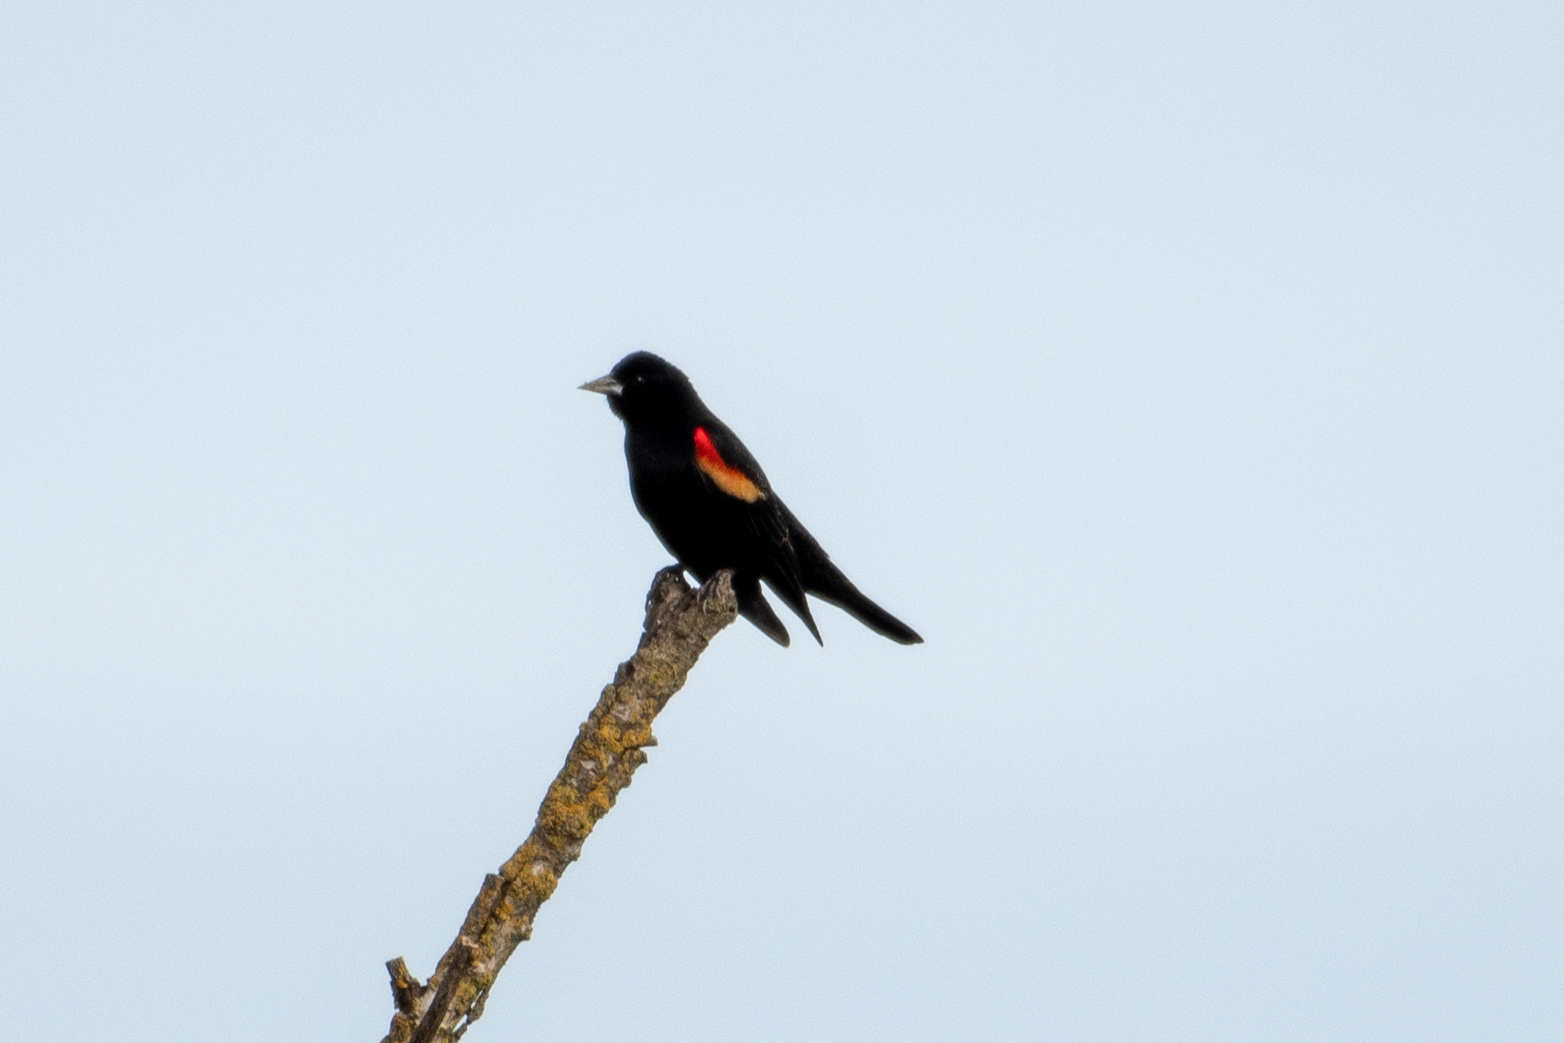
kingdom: Animalia
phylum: Chordata
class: Aves
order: Passeriformes
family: Icteridae
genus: Agelaius
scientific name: Agelaius phoeniceus
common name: Red-winged blackbird
